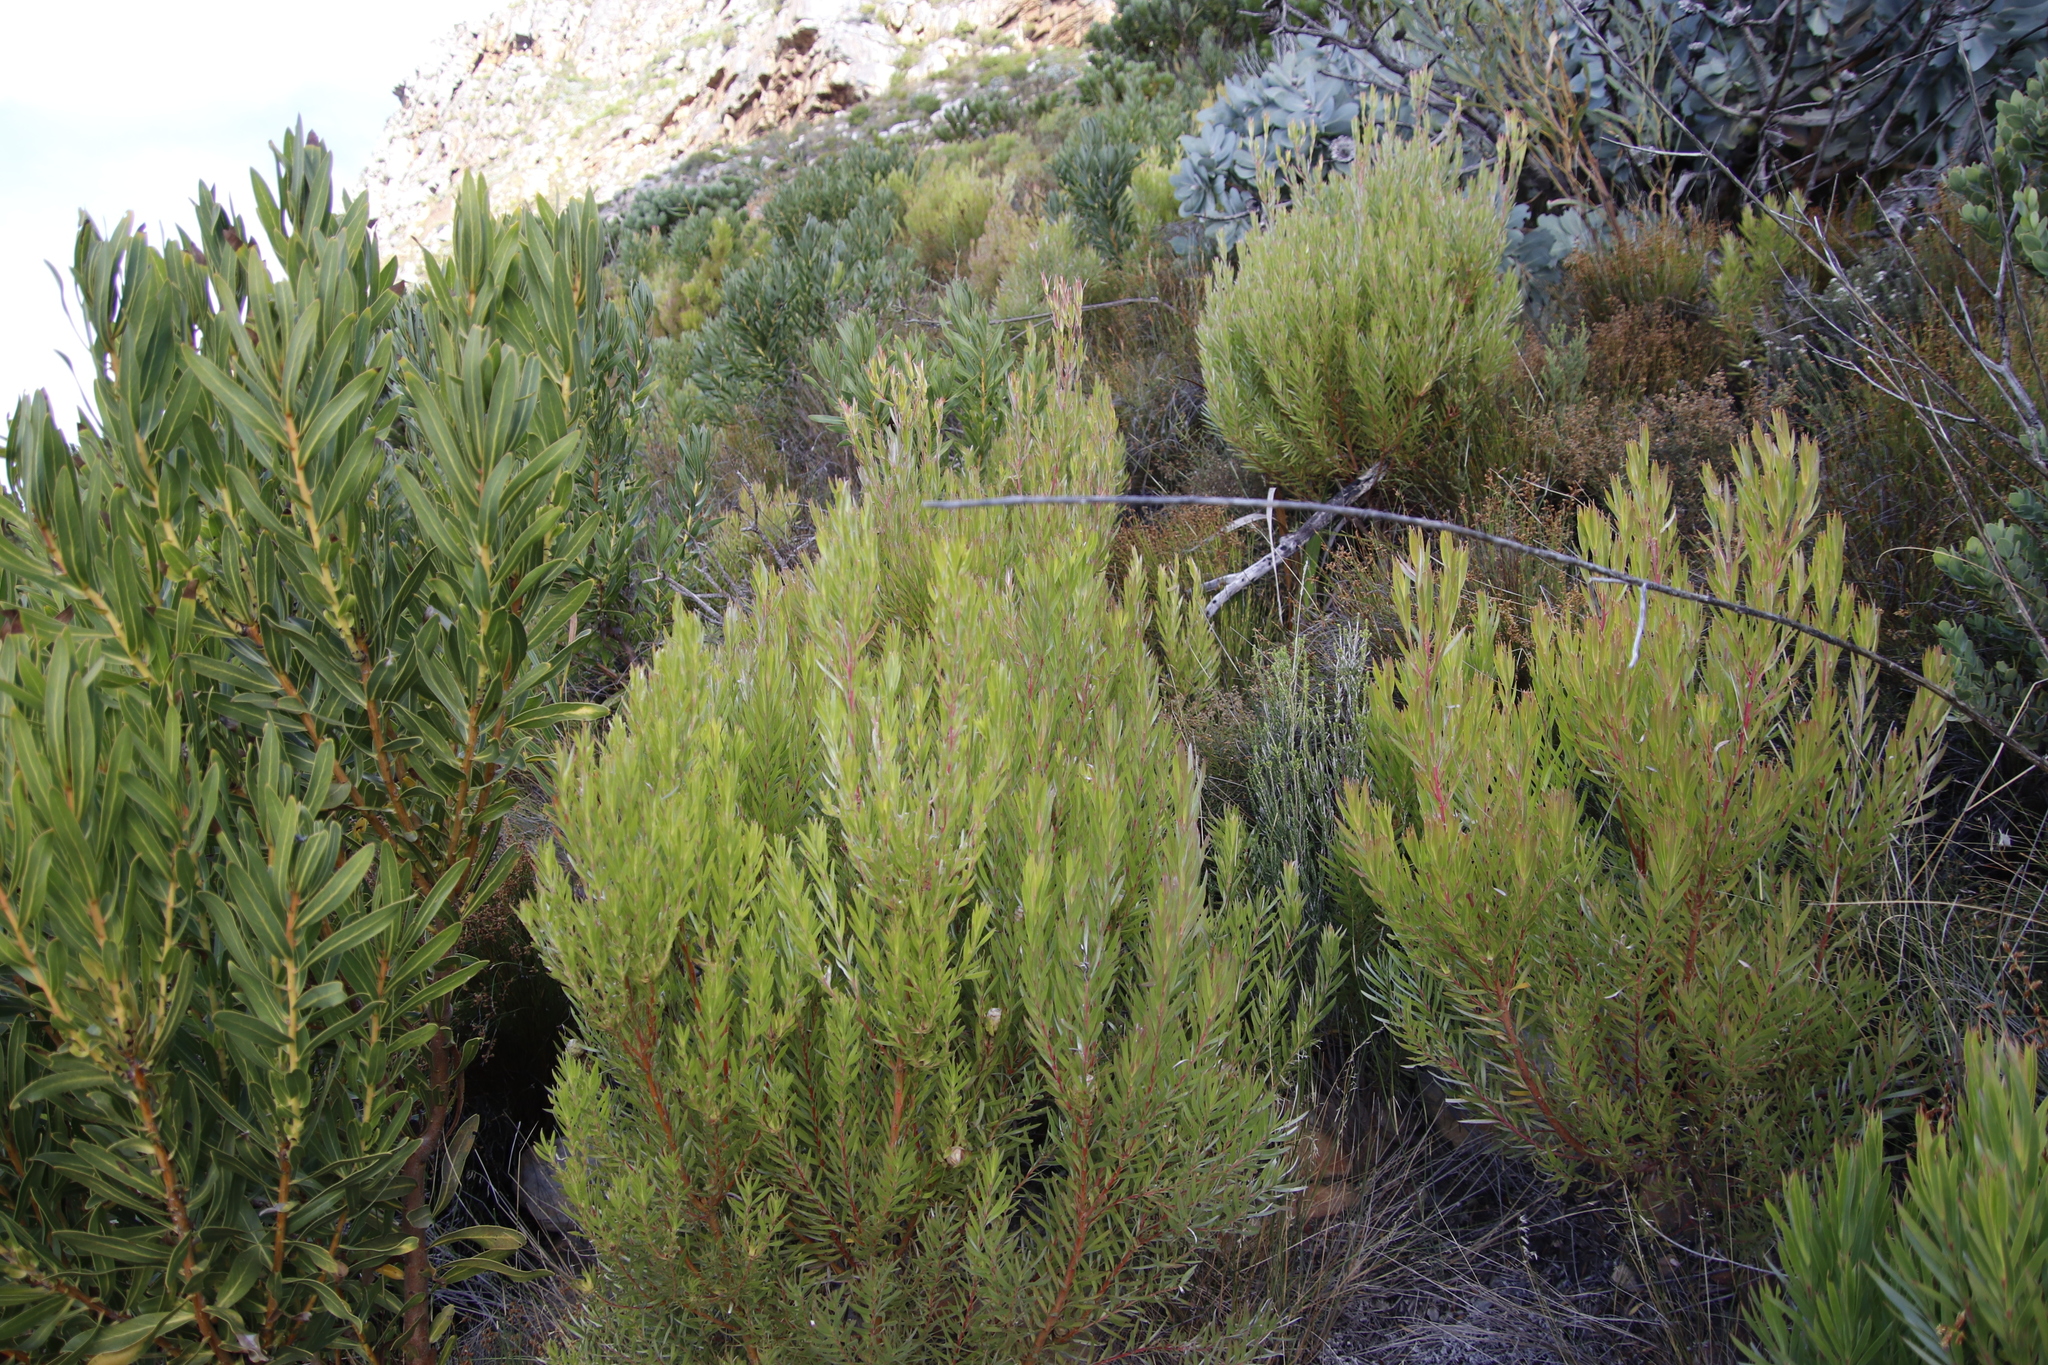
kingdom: Plantae
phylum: Tracheophyta
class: Magnoliopsida
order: Proteales
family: Proteaceae
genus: Leucadendron
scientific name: Leucadendron xanthoconus
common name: Sickle-leaf conebush
